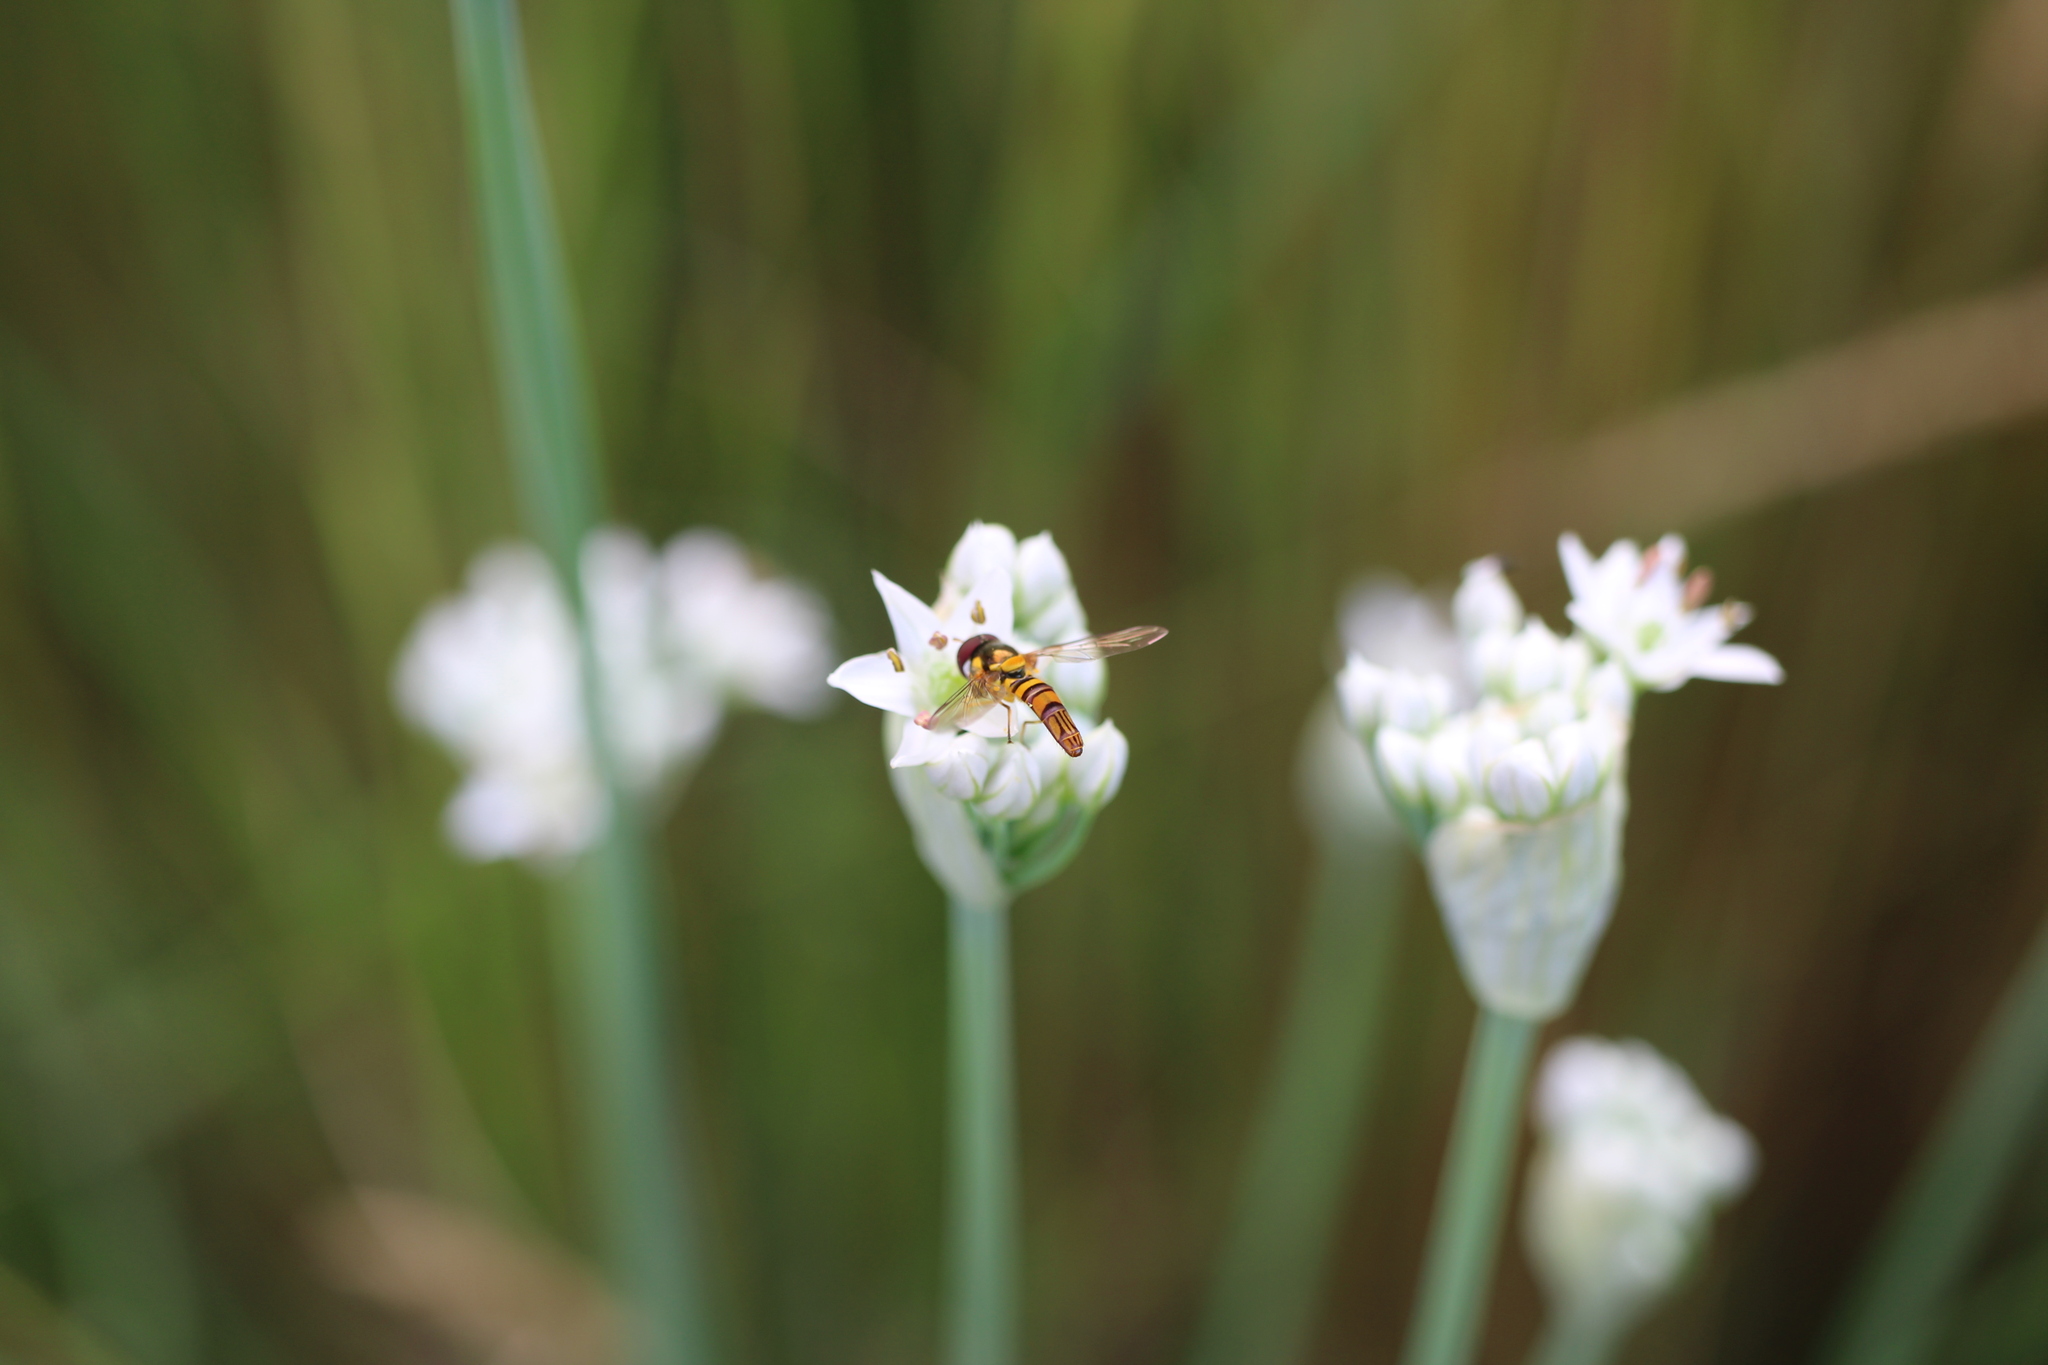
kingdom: Animalia
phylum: Arthropoda
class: Insecta
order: Diptera
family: Syrphidae
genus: Allograpta
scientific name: Allograpta obliqua
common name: Common oblique syrphid
